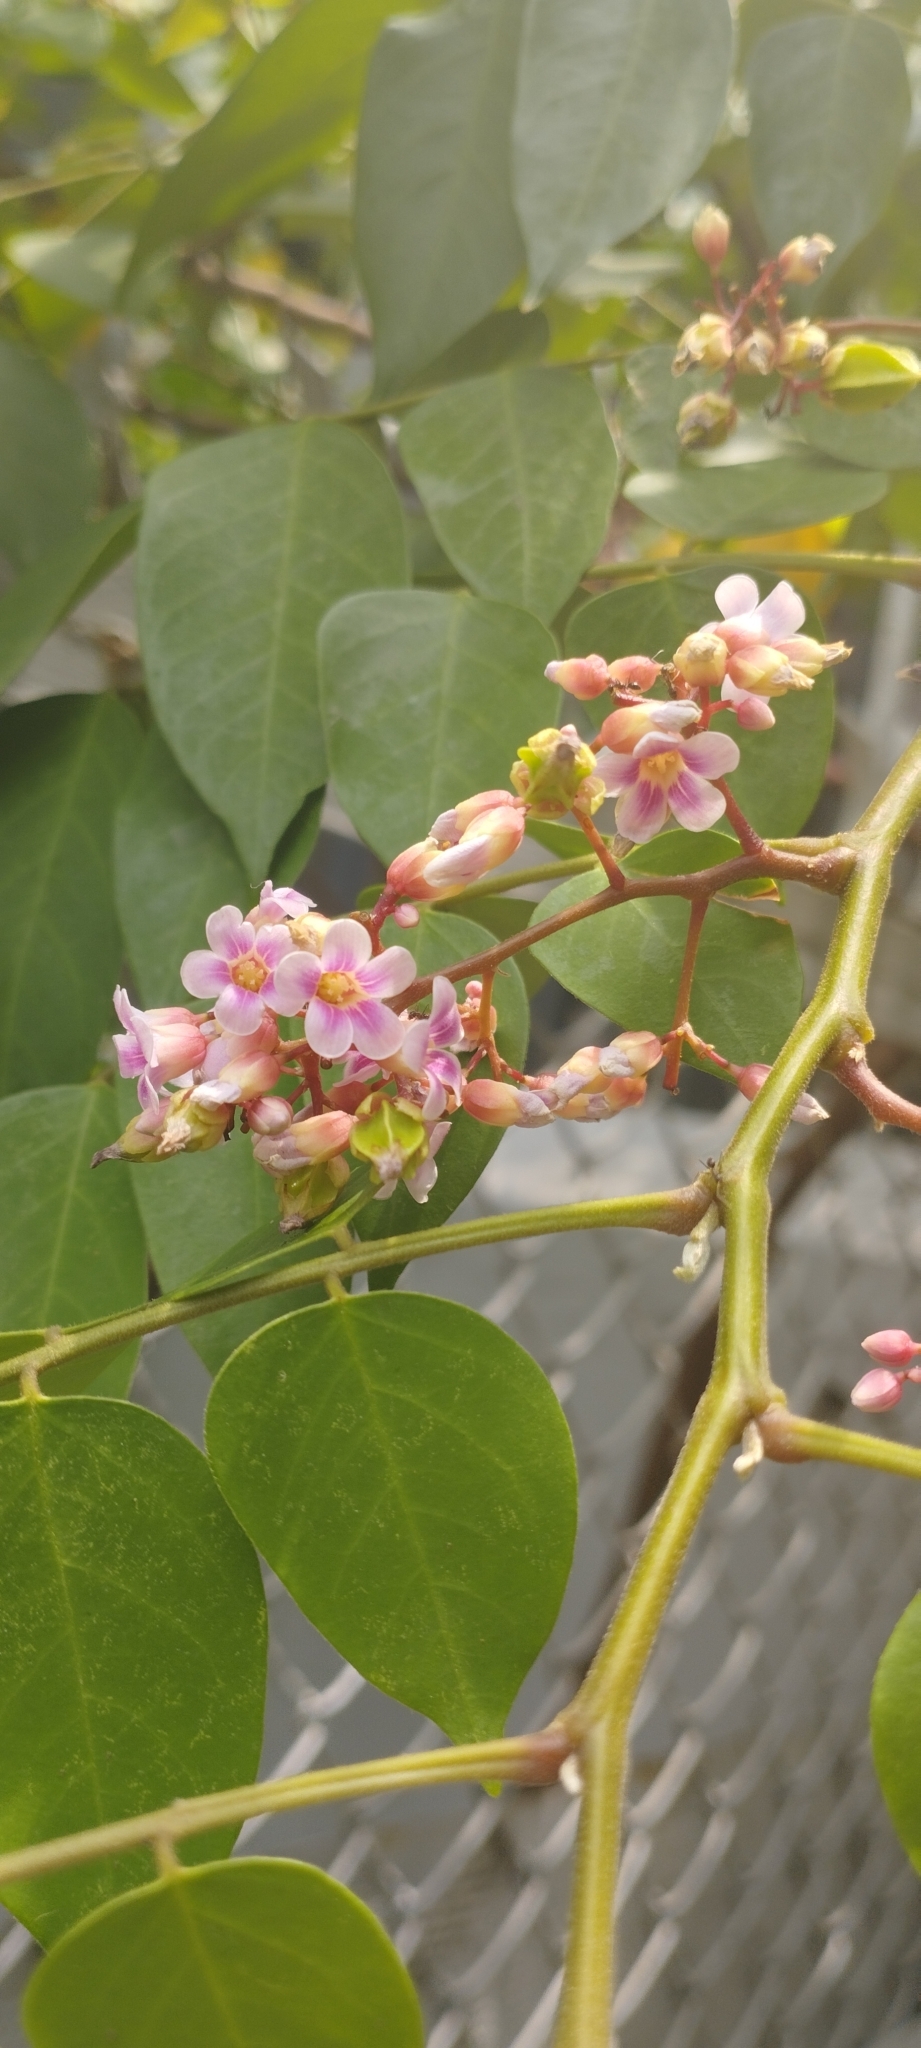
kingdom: Plantae
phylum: Tracheophyta
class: Magnoliopsida
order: Oxalidales
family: Oxalidaceae
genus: Averrhoa
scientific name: Averrhoa carambola
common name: Blimbing
